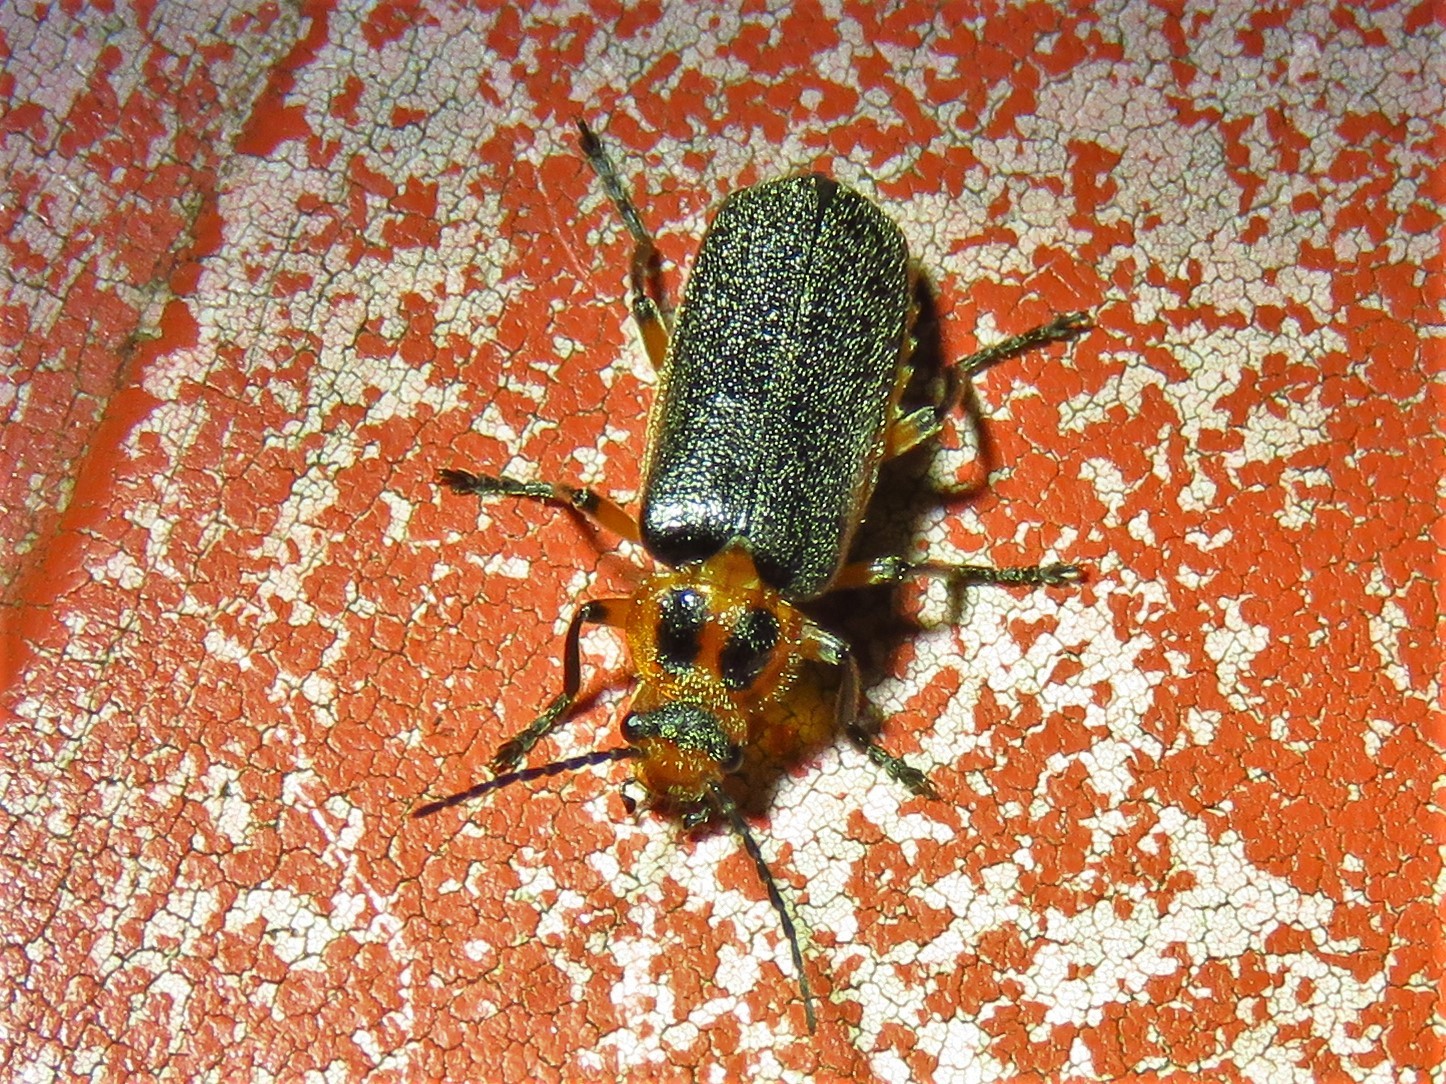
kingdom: Animalia
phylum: Arthropoda
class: Insecta
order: Coleoptera
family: Cantharidae
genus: Atalantycha
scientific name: Atalantycha bilineata
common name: Two-lined leatherwing
